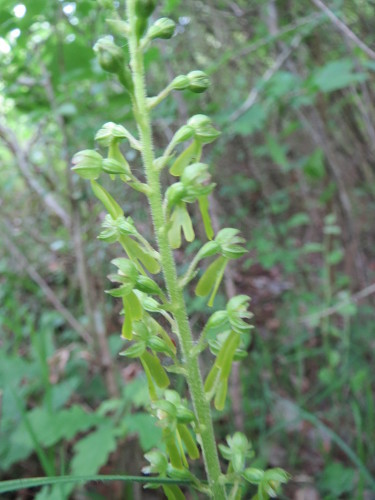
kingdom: Plantae
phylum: Tracheophyta
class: Liliopsida
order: Asparagales
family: Orchidaceae
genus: Neottia
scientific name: Neottia ovata
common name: Common twayblade
